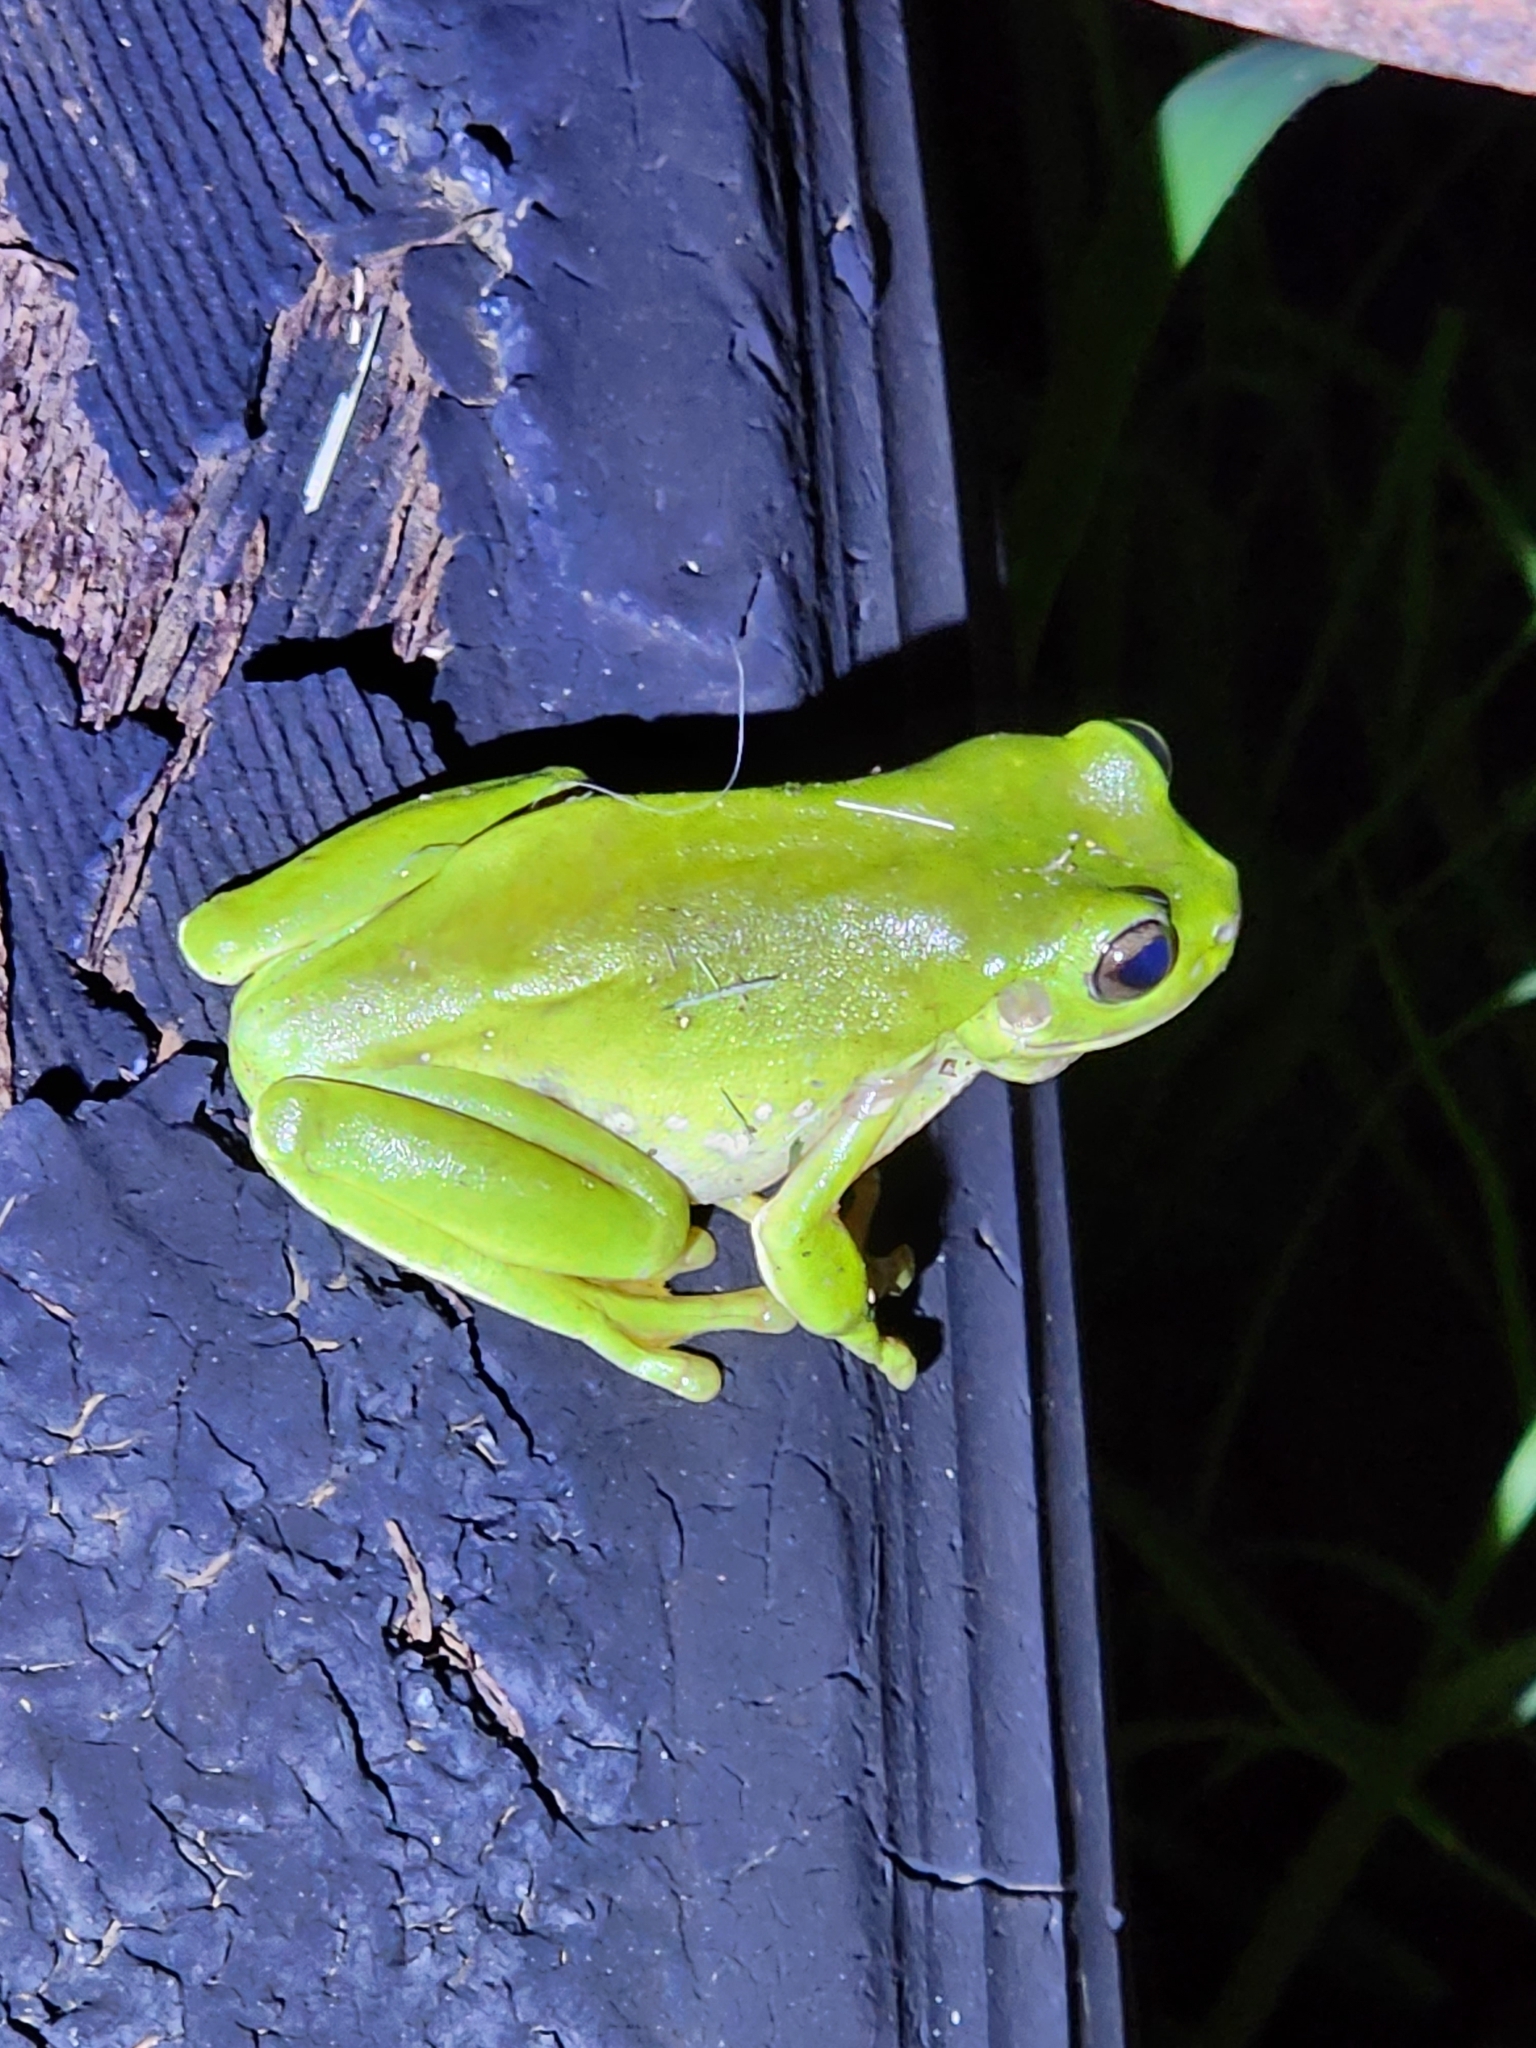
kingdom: Animalia
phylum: Chordata
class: Amphibia
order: Anura
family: Pelodryadidae
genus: Ranoidea
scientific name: Ranoidea caerulea
